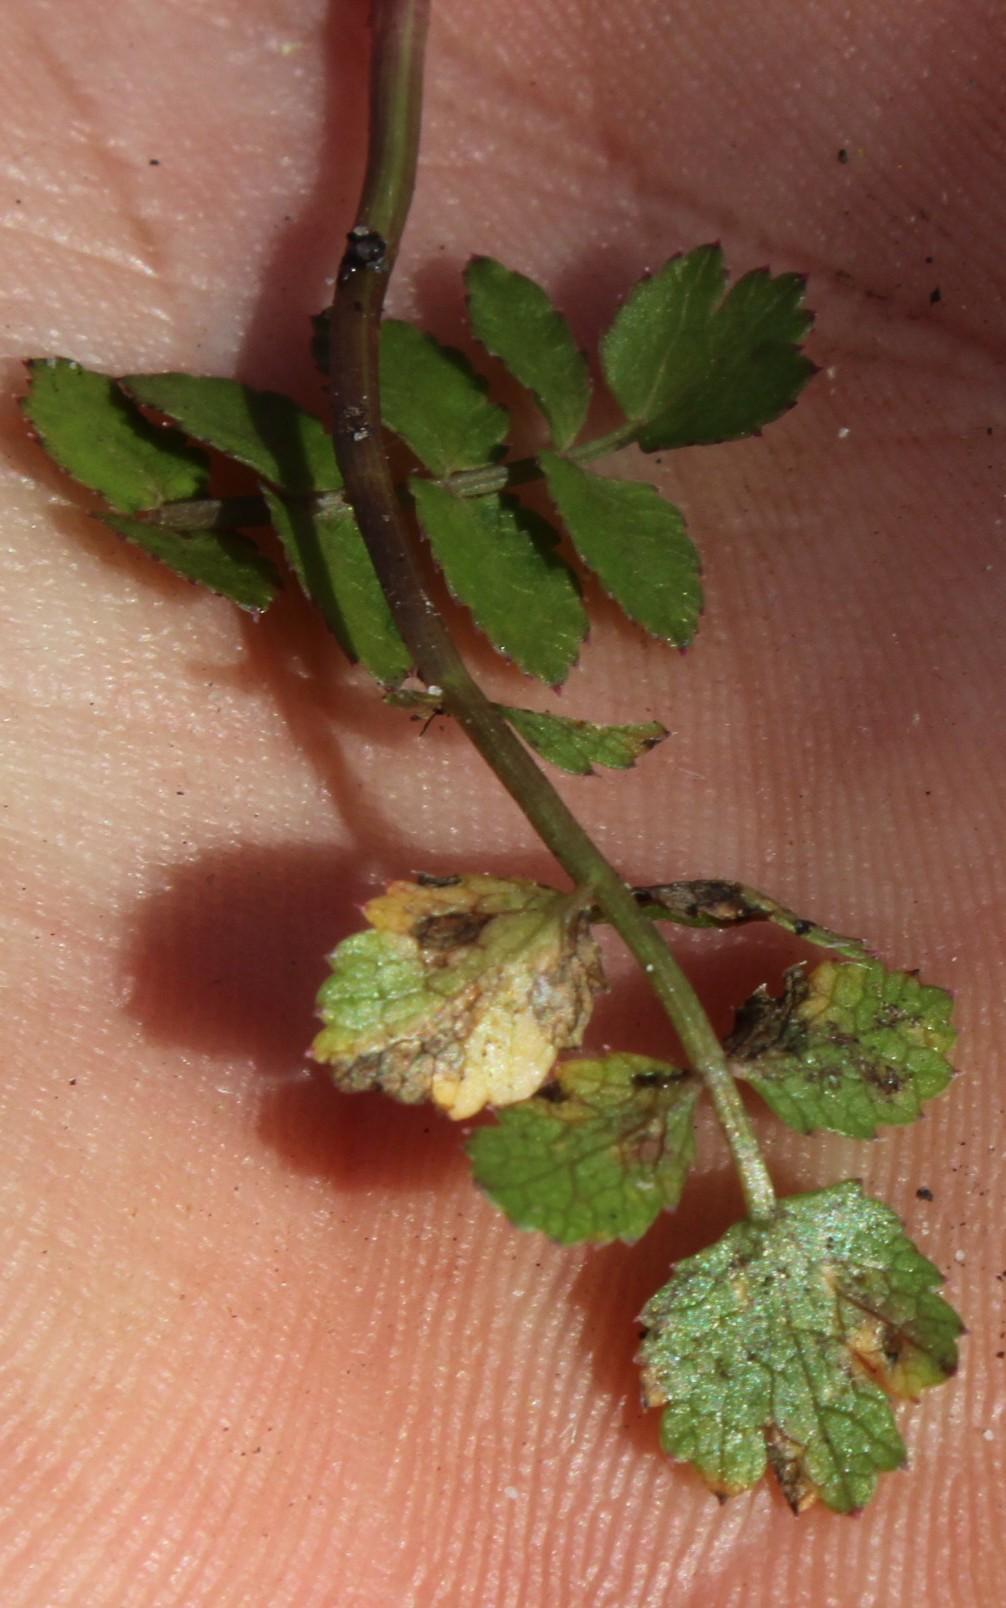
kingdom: Plantae
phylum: Tracheophyta
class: Magnoliopsida
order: Apiales
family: Apiaceae
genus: Berula
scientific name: Berula thunbergii
